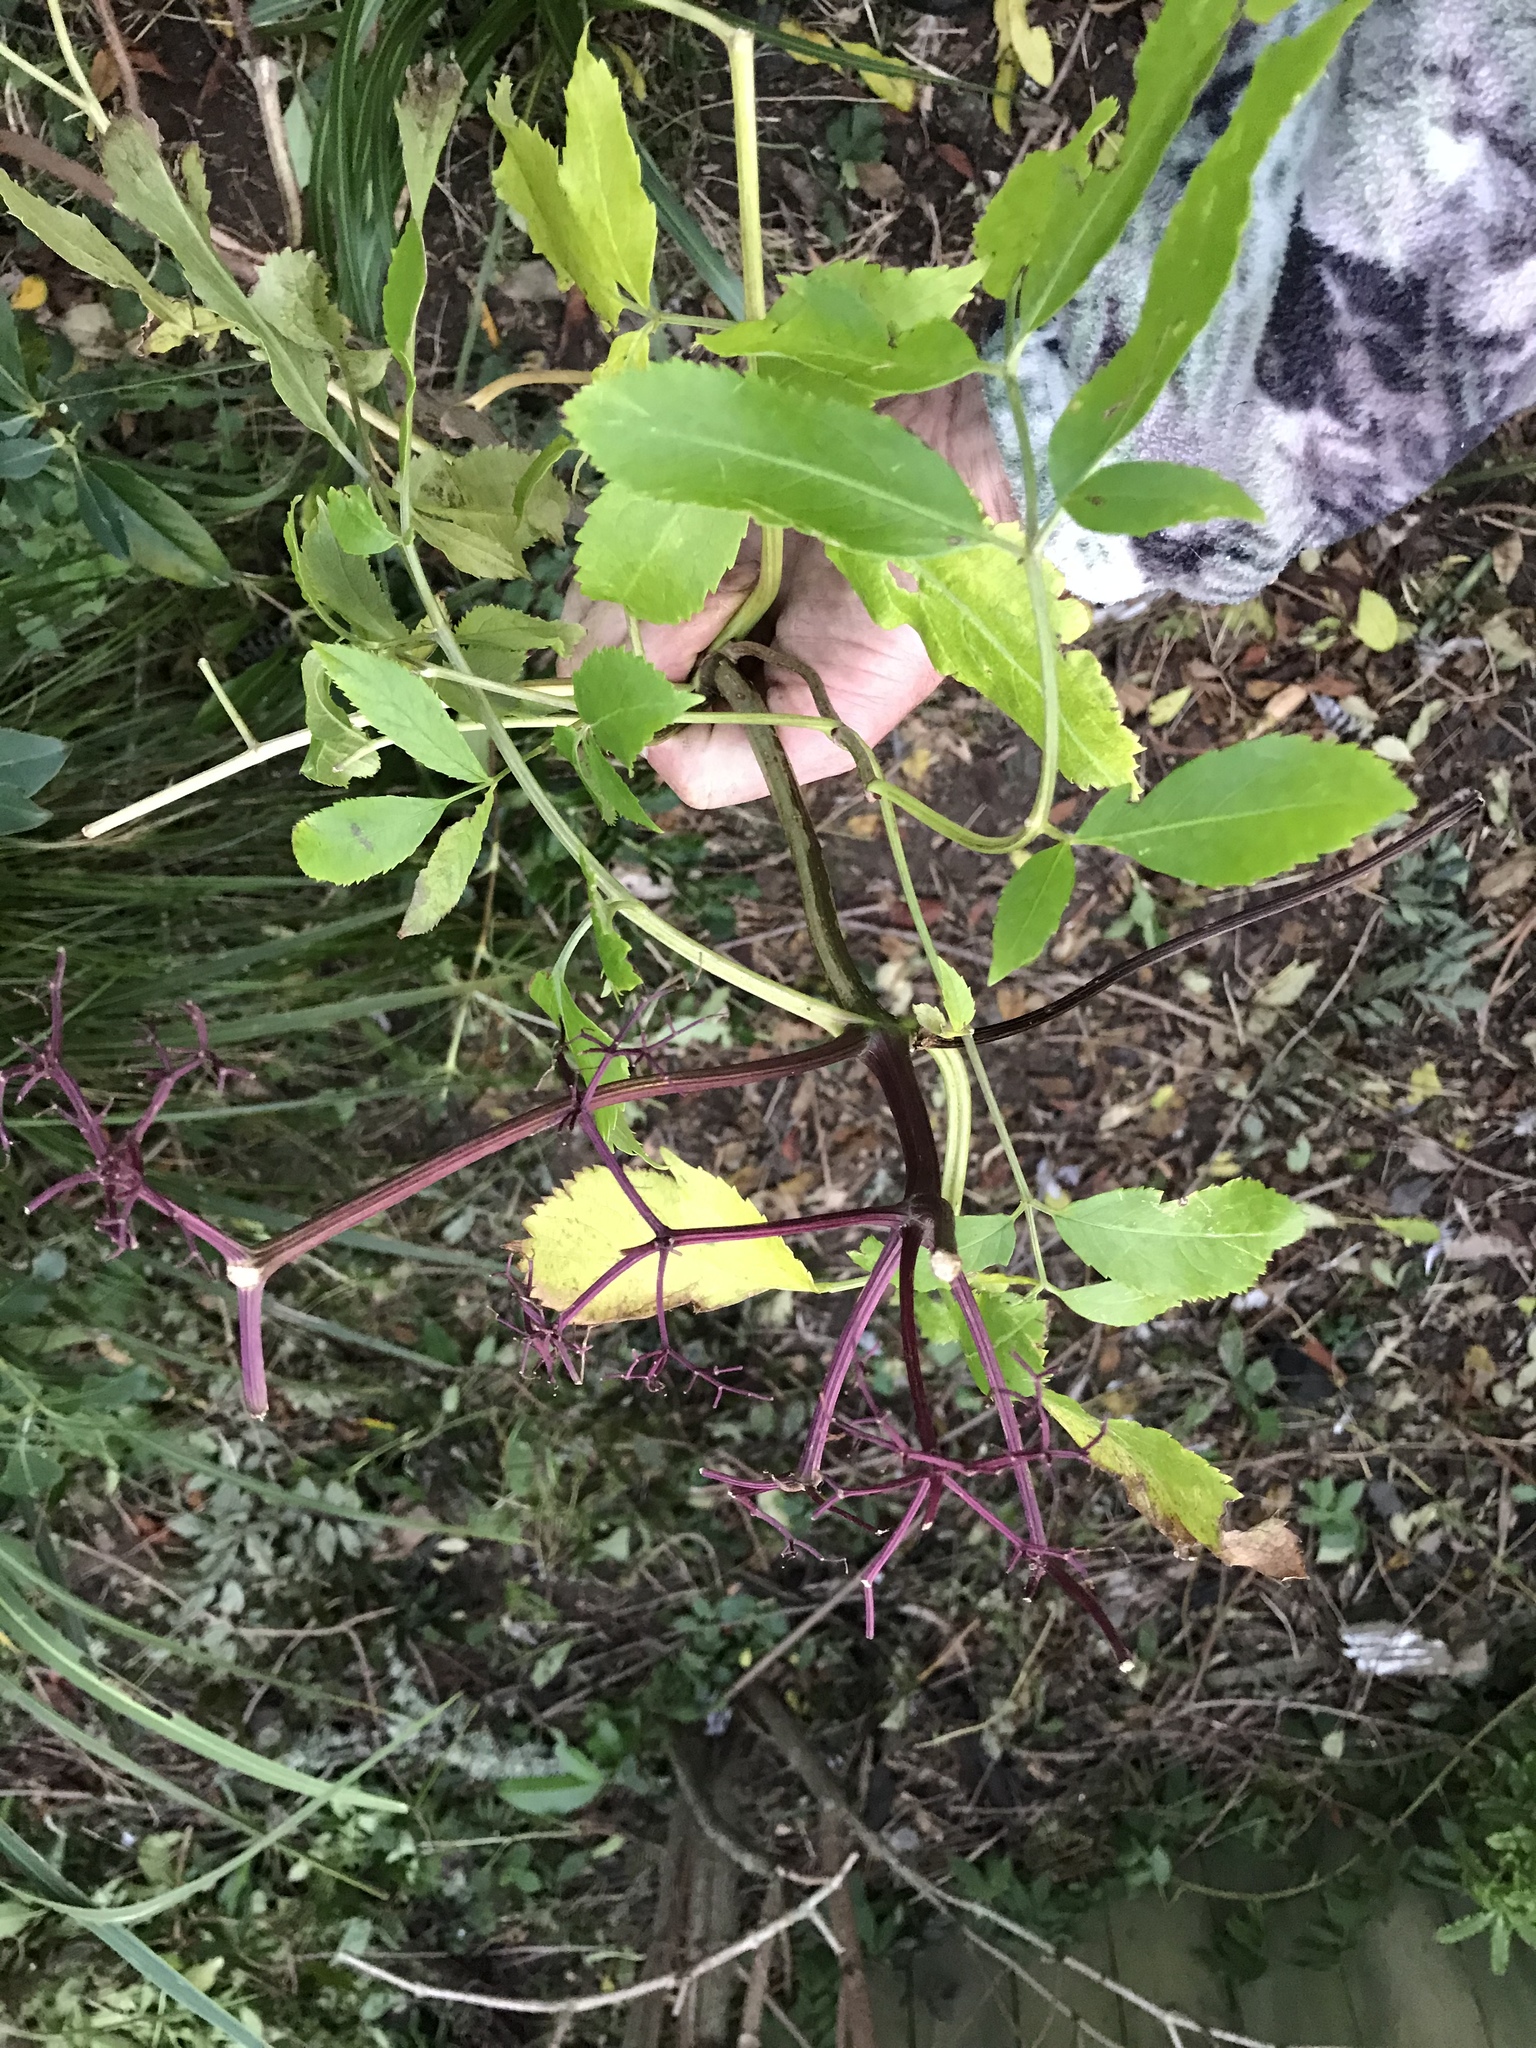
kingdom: Plantae
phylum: Tracheophyta
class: Magnoliopsida
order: Dipsacales
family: Viburnaceae
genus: Sambucus
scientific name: Sambucus nigra
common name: Elder
